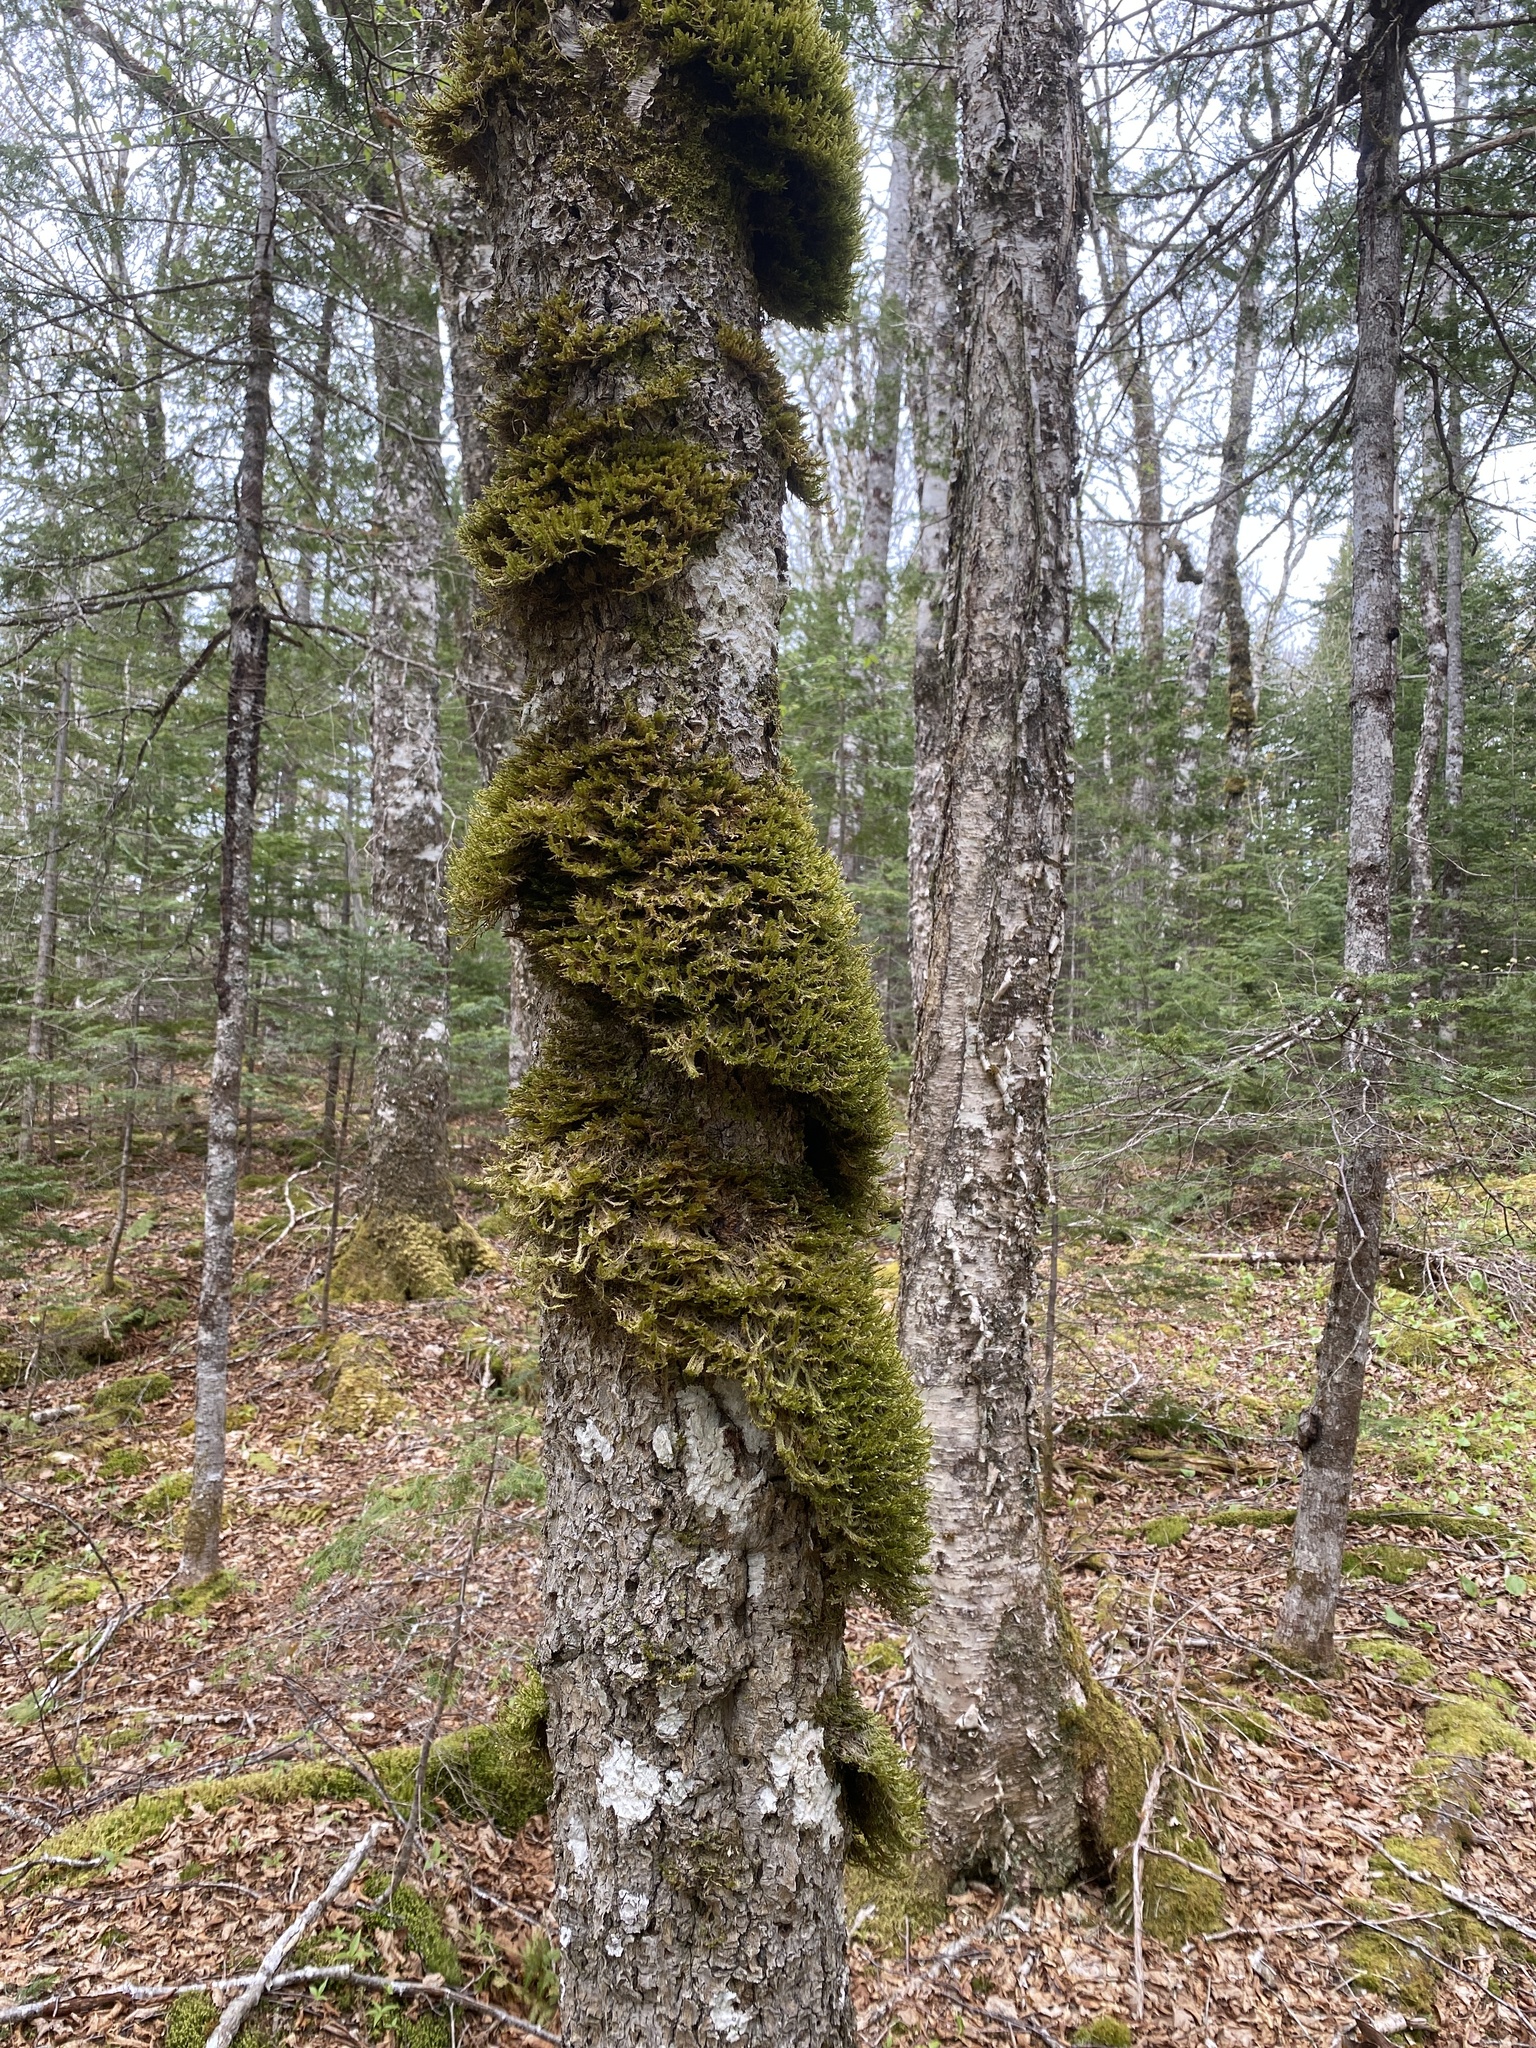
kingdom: Plantae
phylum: Bryophyta
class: Bryopsida
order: Hypnales
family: Neckeraceae
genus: Neckera
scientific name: Neckera pennata
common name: Feathery neckera
